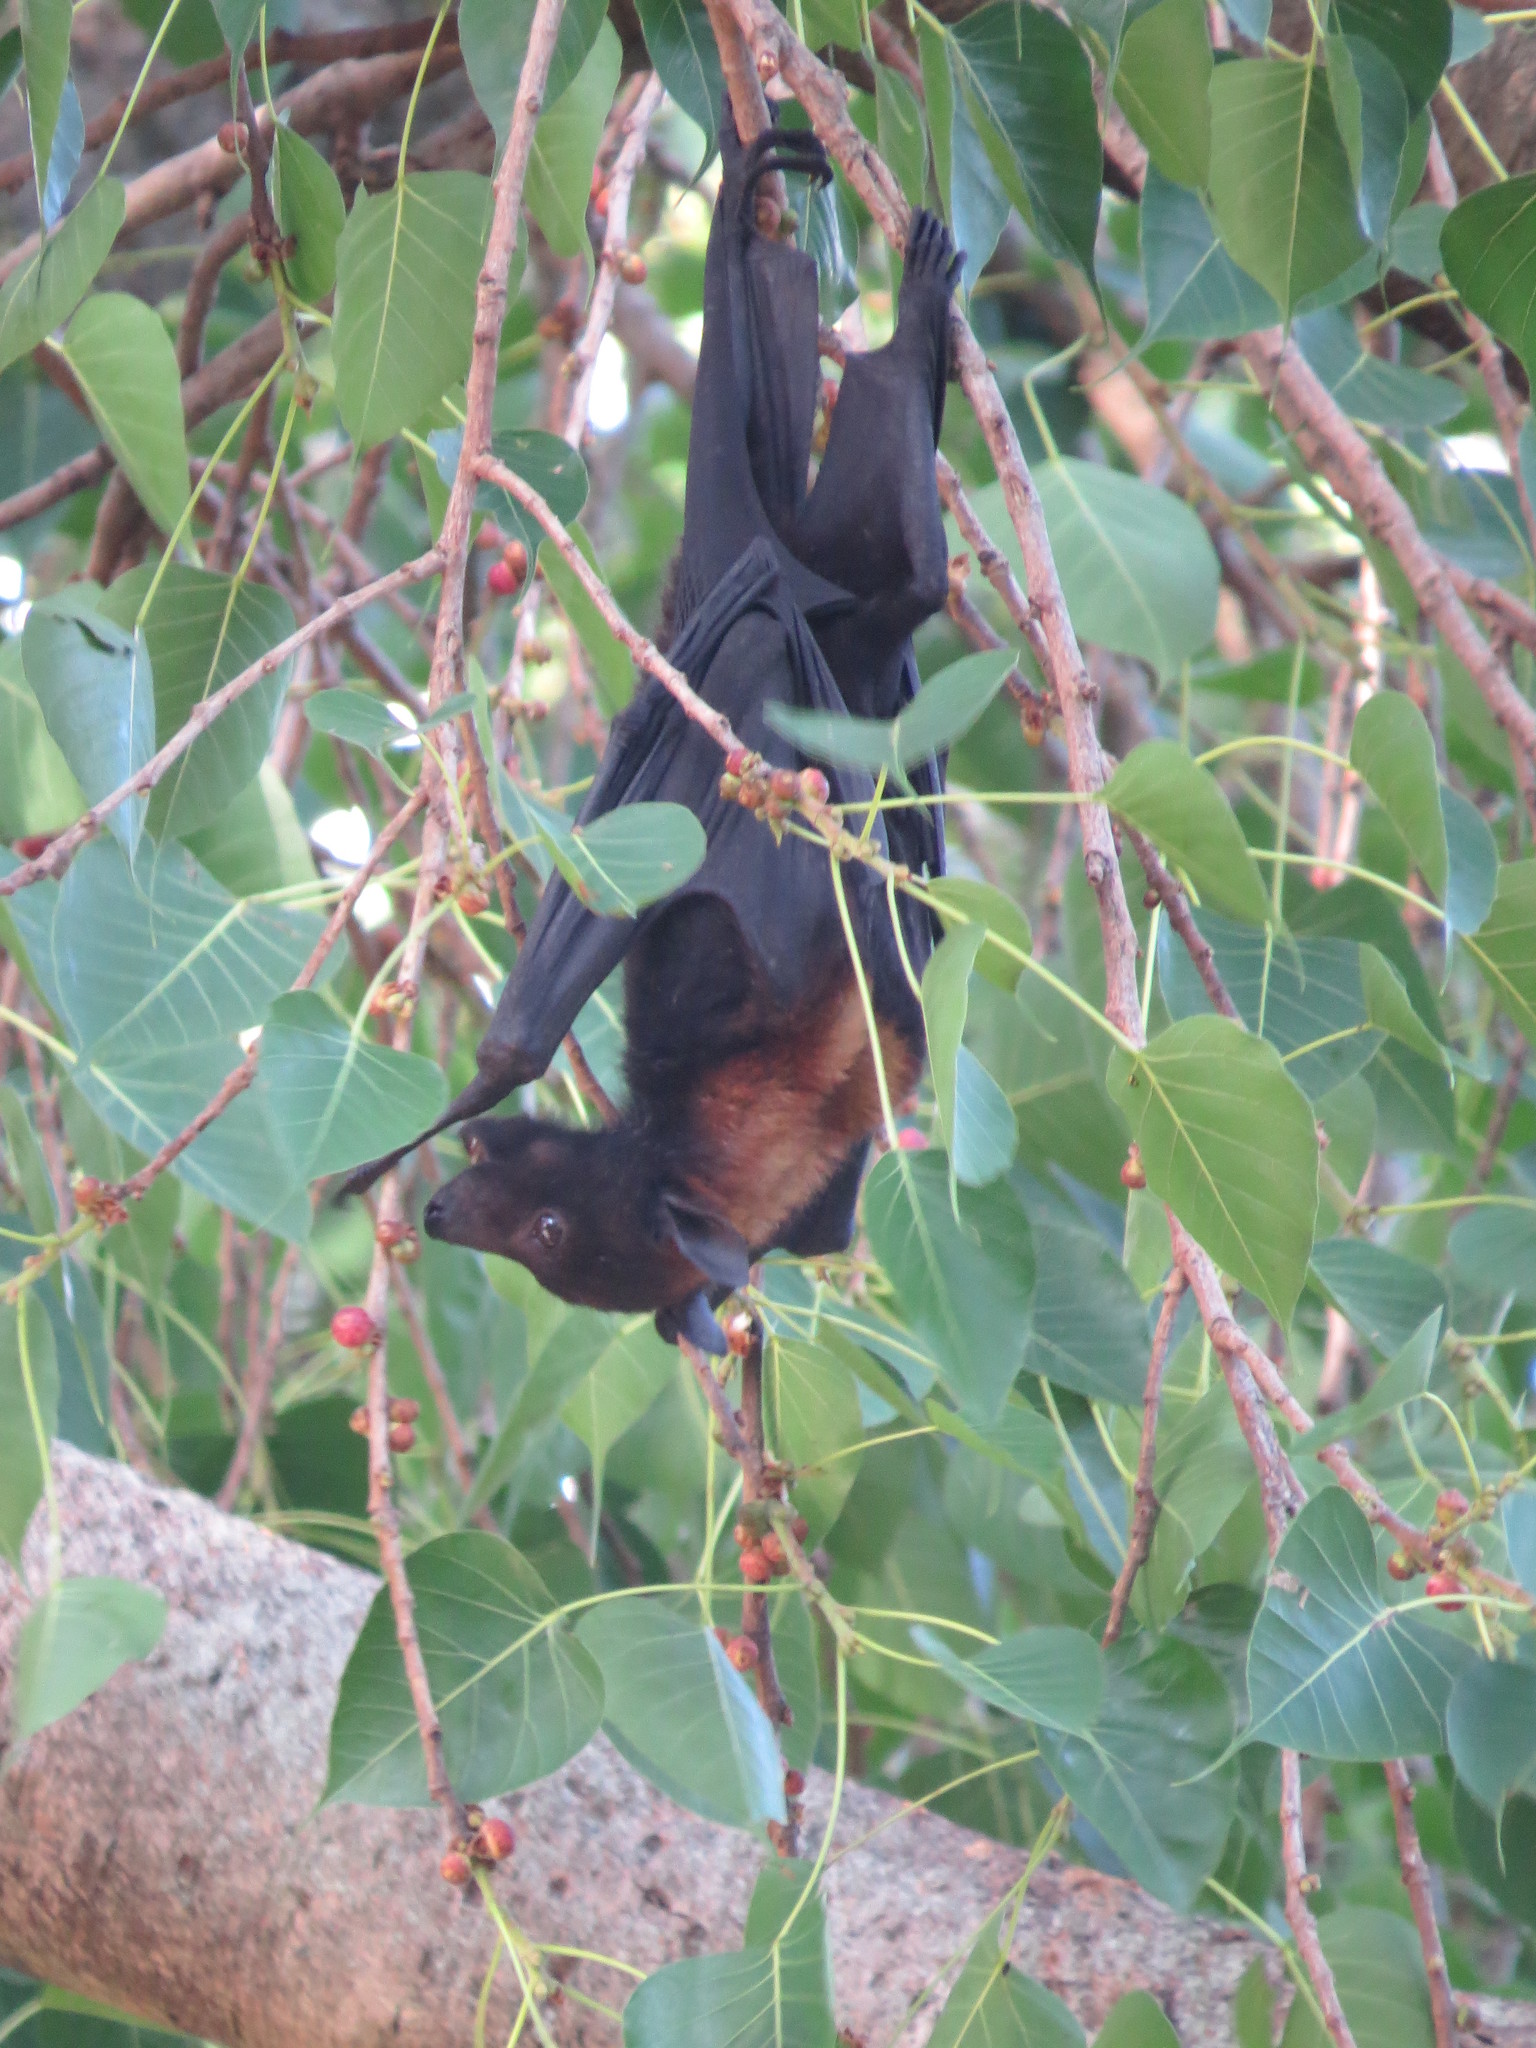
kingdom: Animalia
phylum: Chordata
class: Mammalia
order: Chiroptera
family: Pteropodidae
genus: Pteropus
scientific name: Pteropus alecto
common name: Black flying fox
